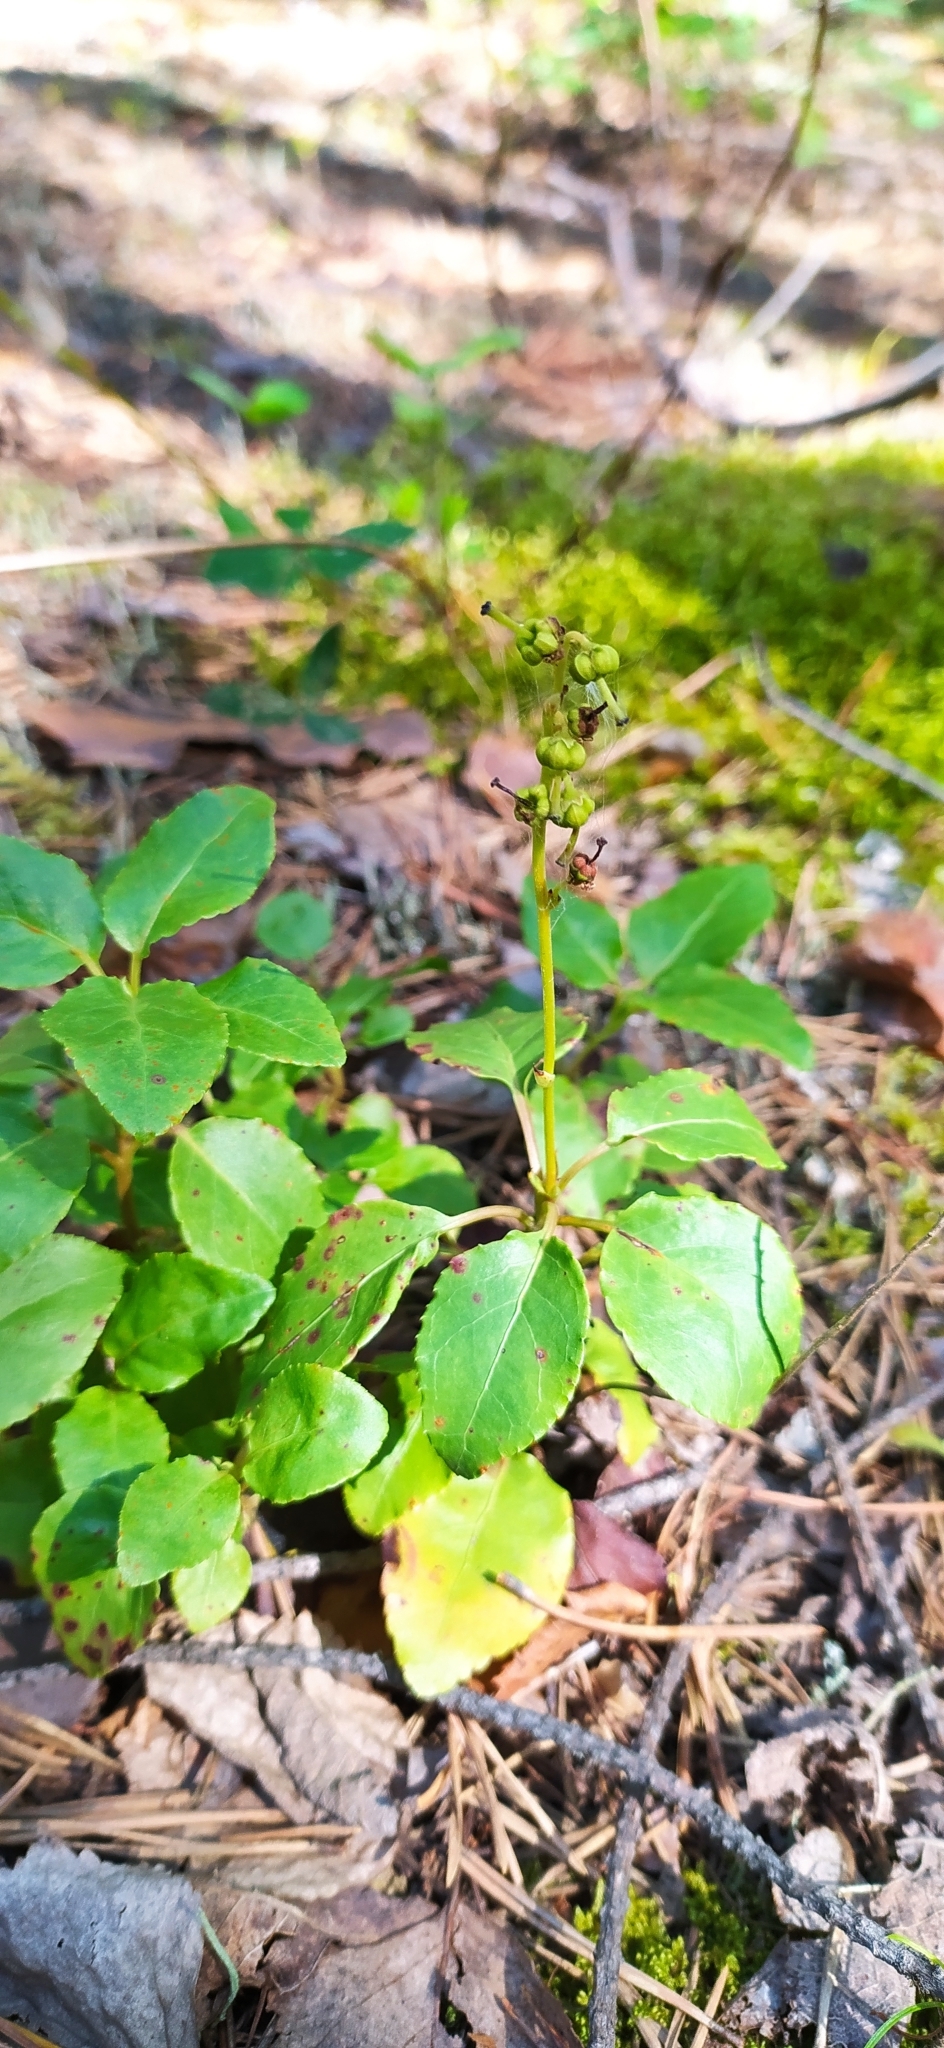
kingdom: Plantae
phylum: Tracheophyta
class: Magnoliopsida
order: Ericales
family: Ericaceae
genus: Orthilia
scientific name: Orthilia secunda
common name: One-sided orthilia
